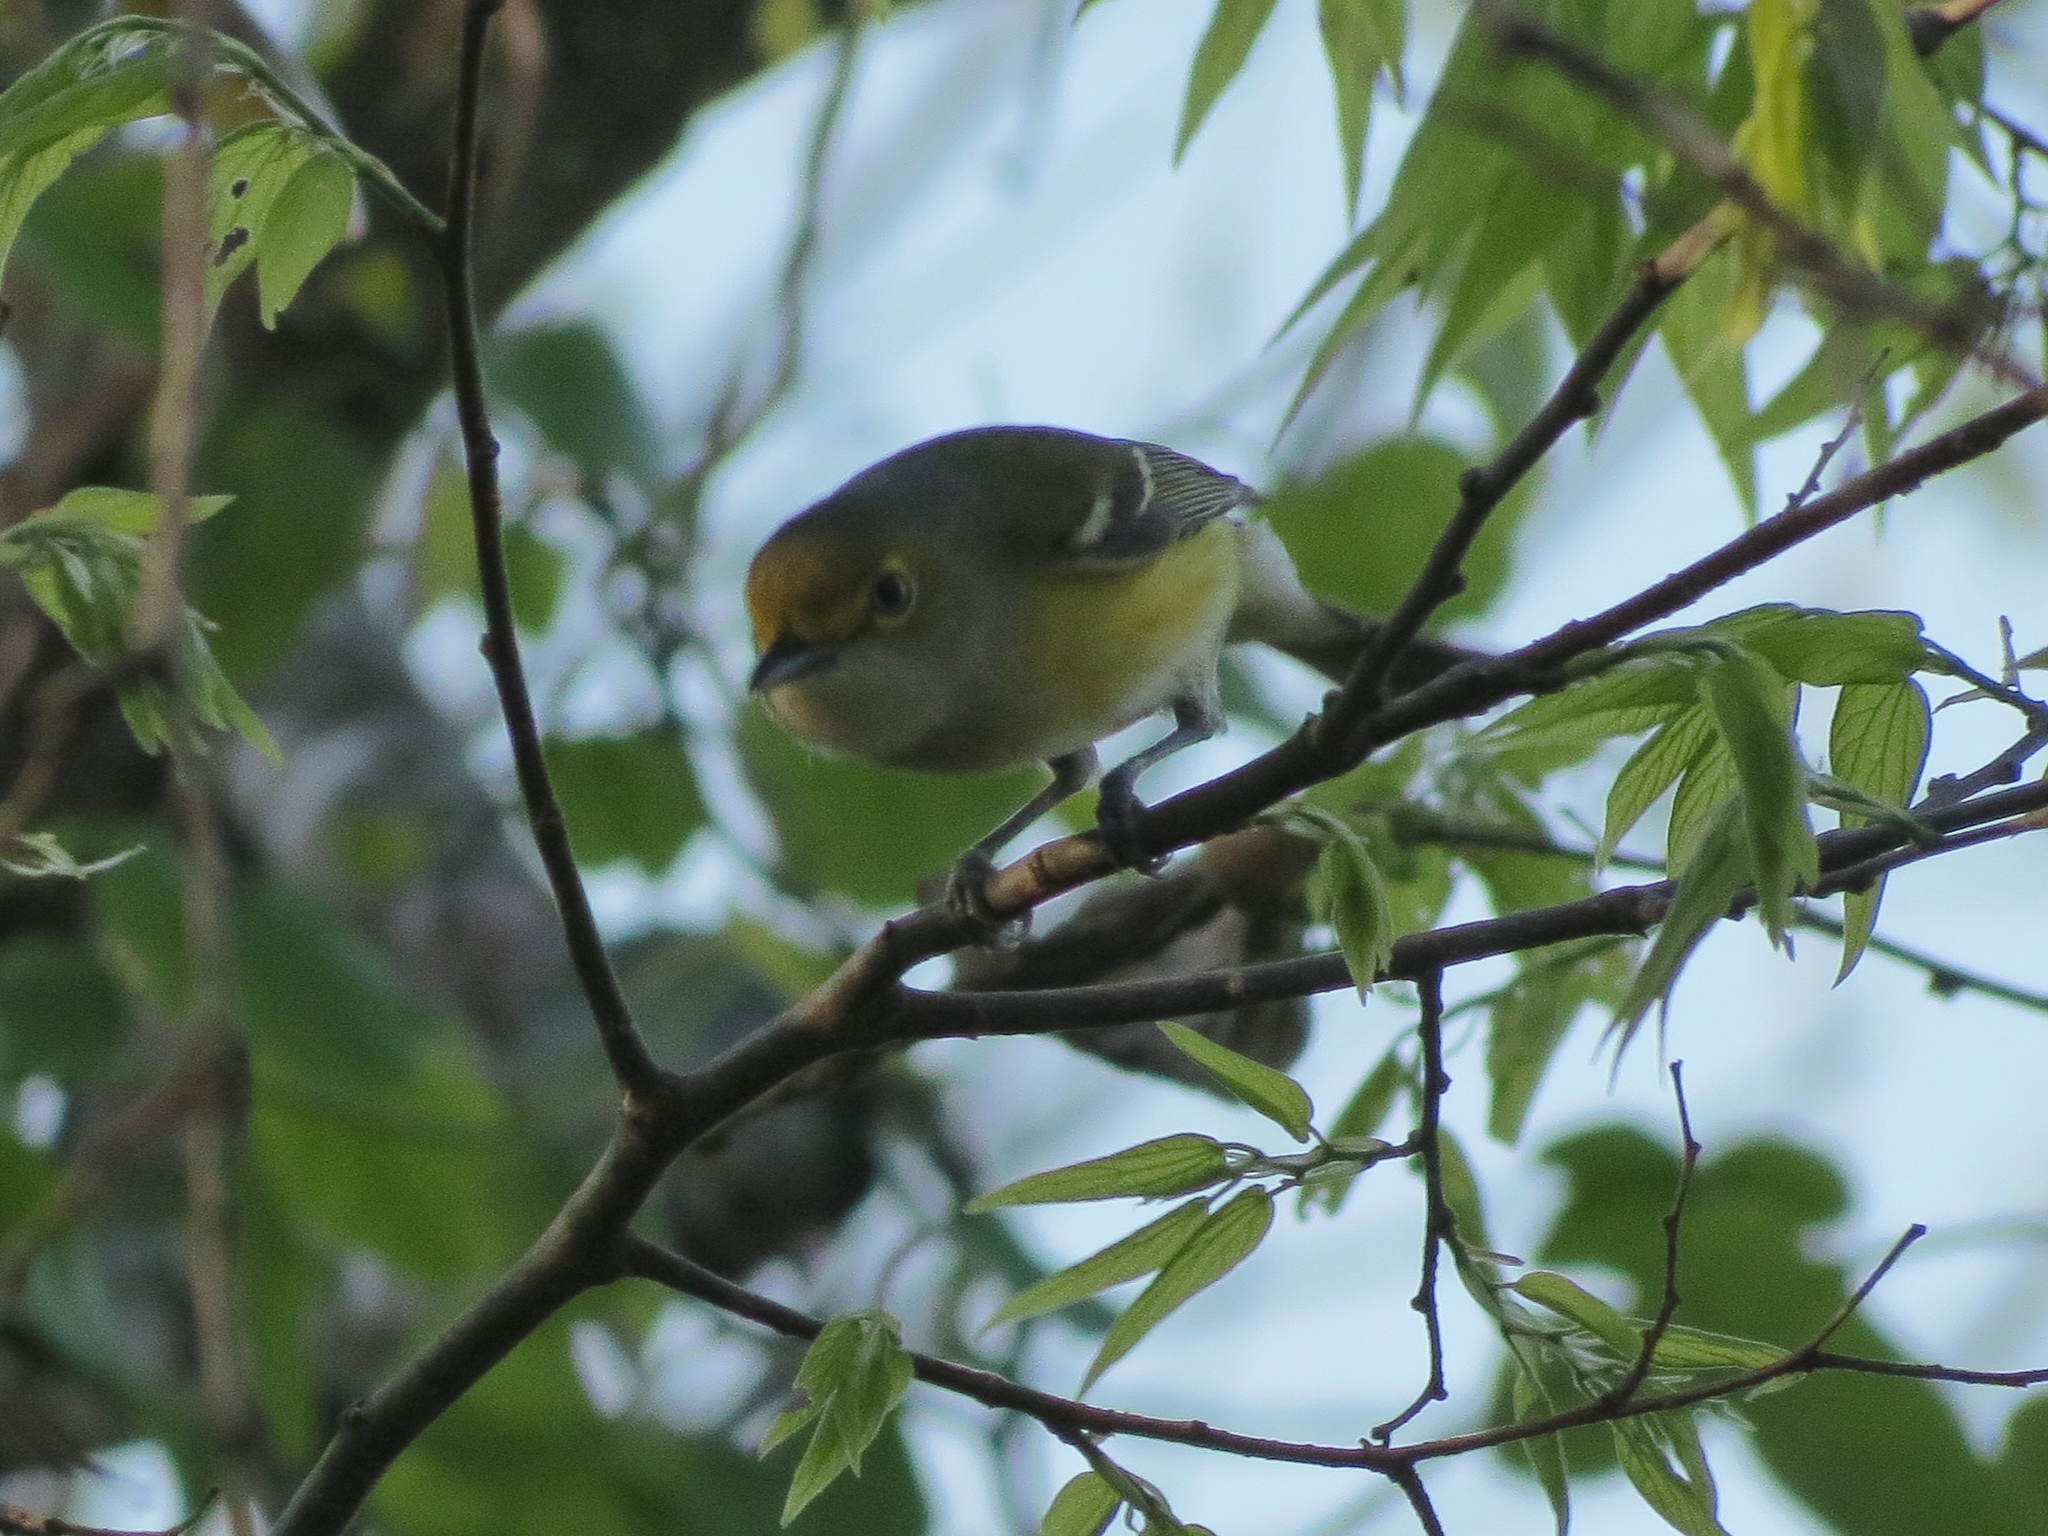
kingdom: Animalia
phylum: Chordata
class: Aves
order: Passeriformes
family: Vireonidae
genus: Vireo
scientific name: Vireo griseus
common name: White-eyed vireo
